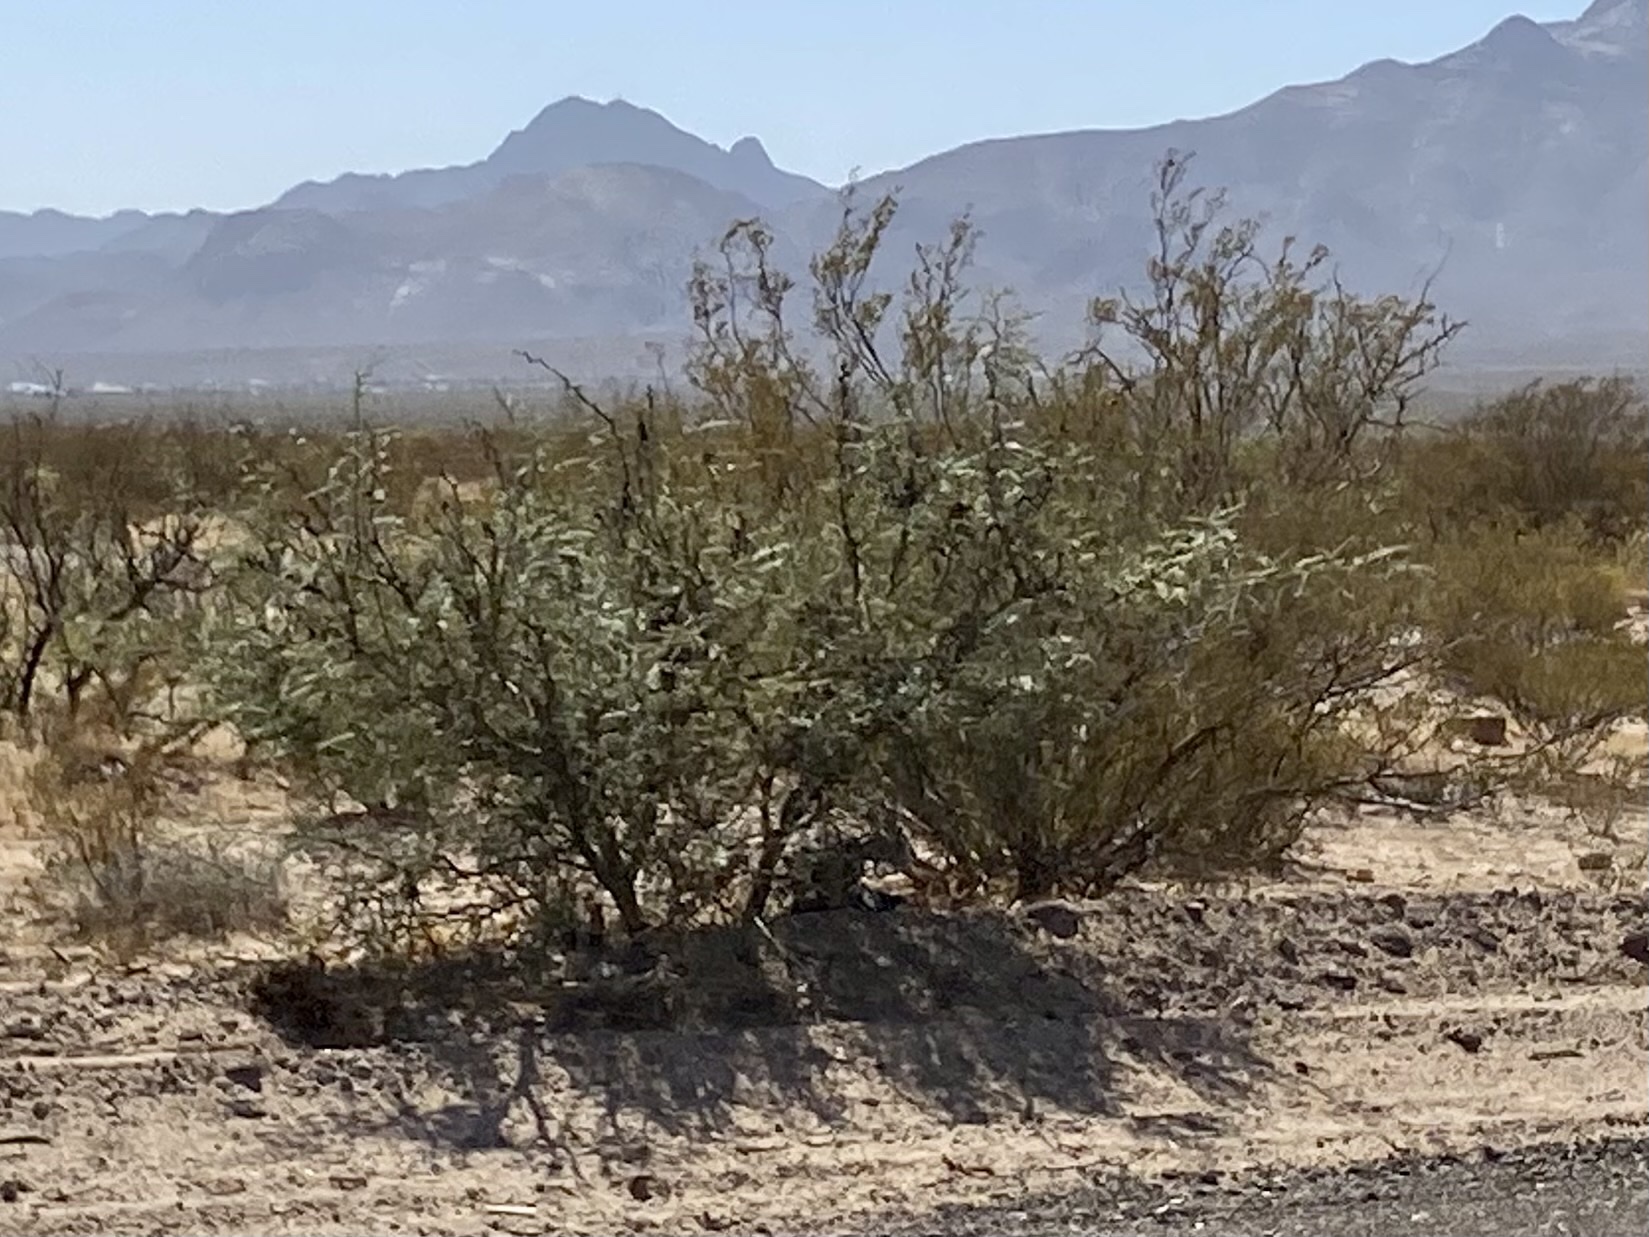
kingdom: Plantae
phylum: Tracheophyta
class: Magnoliopsida
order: Fabales
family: Fabaceae
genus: Prosopis
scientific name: Prosopis glandulosa
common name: Honey mesquite
